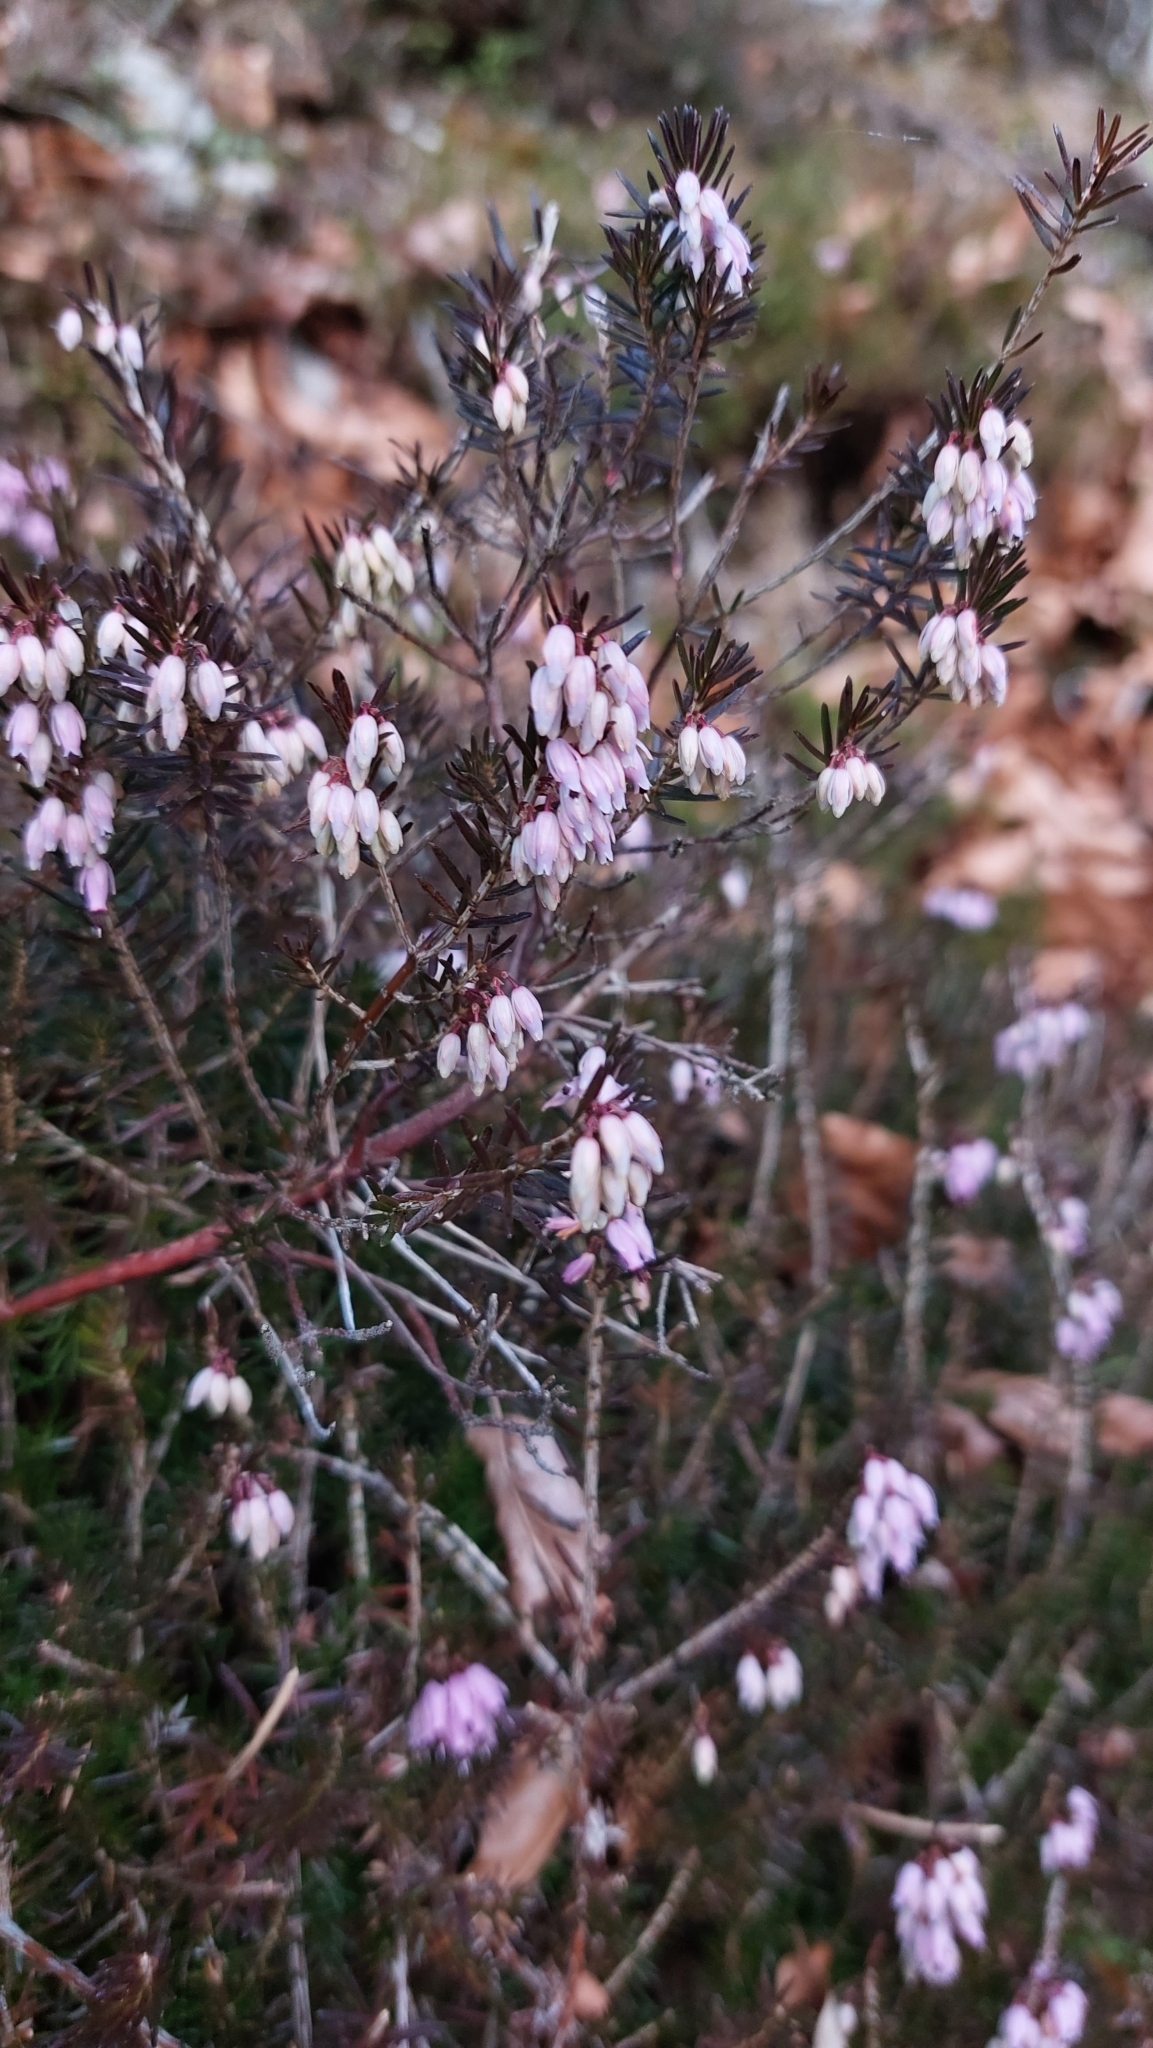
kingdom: Plantae
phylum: Tracheophyta
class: Magnoliopsida
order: Ericales
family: Ericaceae
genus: Erica
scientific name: Erica carnea
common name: Winter heath
